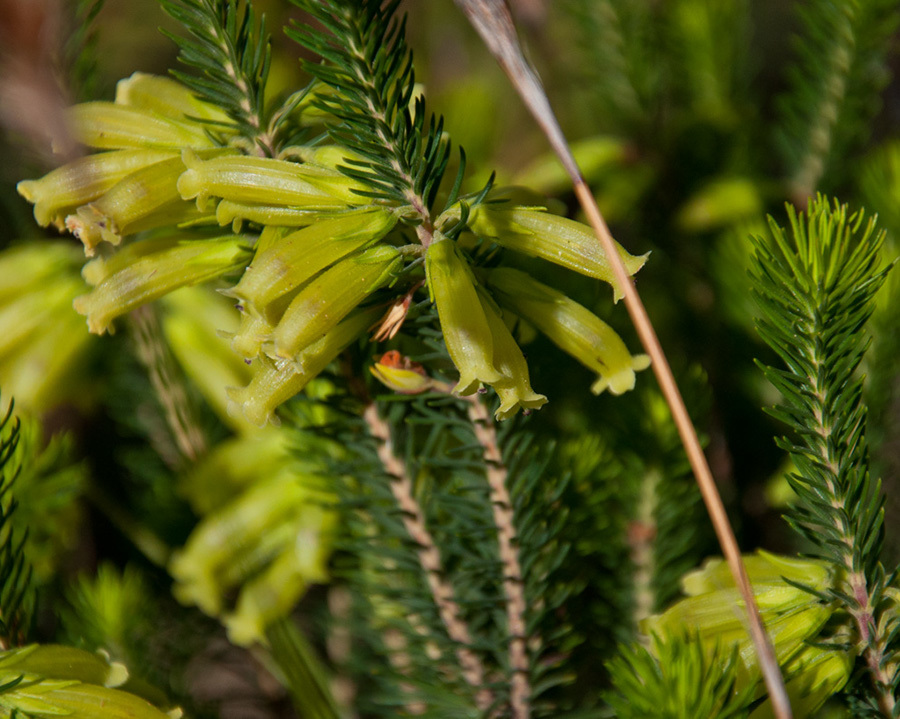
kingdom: Plantae
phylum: Tracheophyta
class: Magnoliopsida
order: Ericales
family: Ericaceae
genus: Erica
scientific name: Erica viscaria
